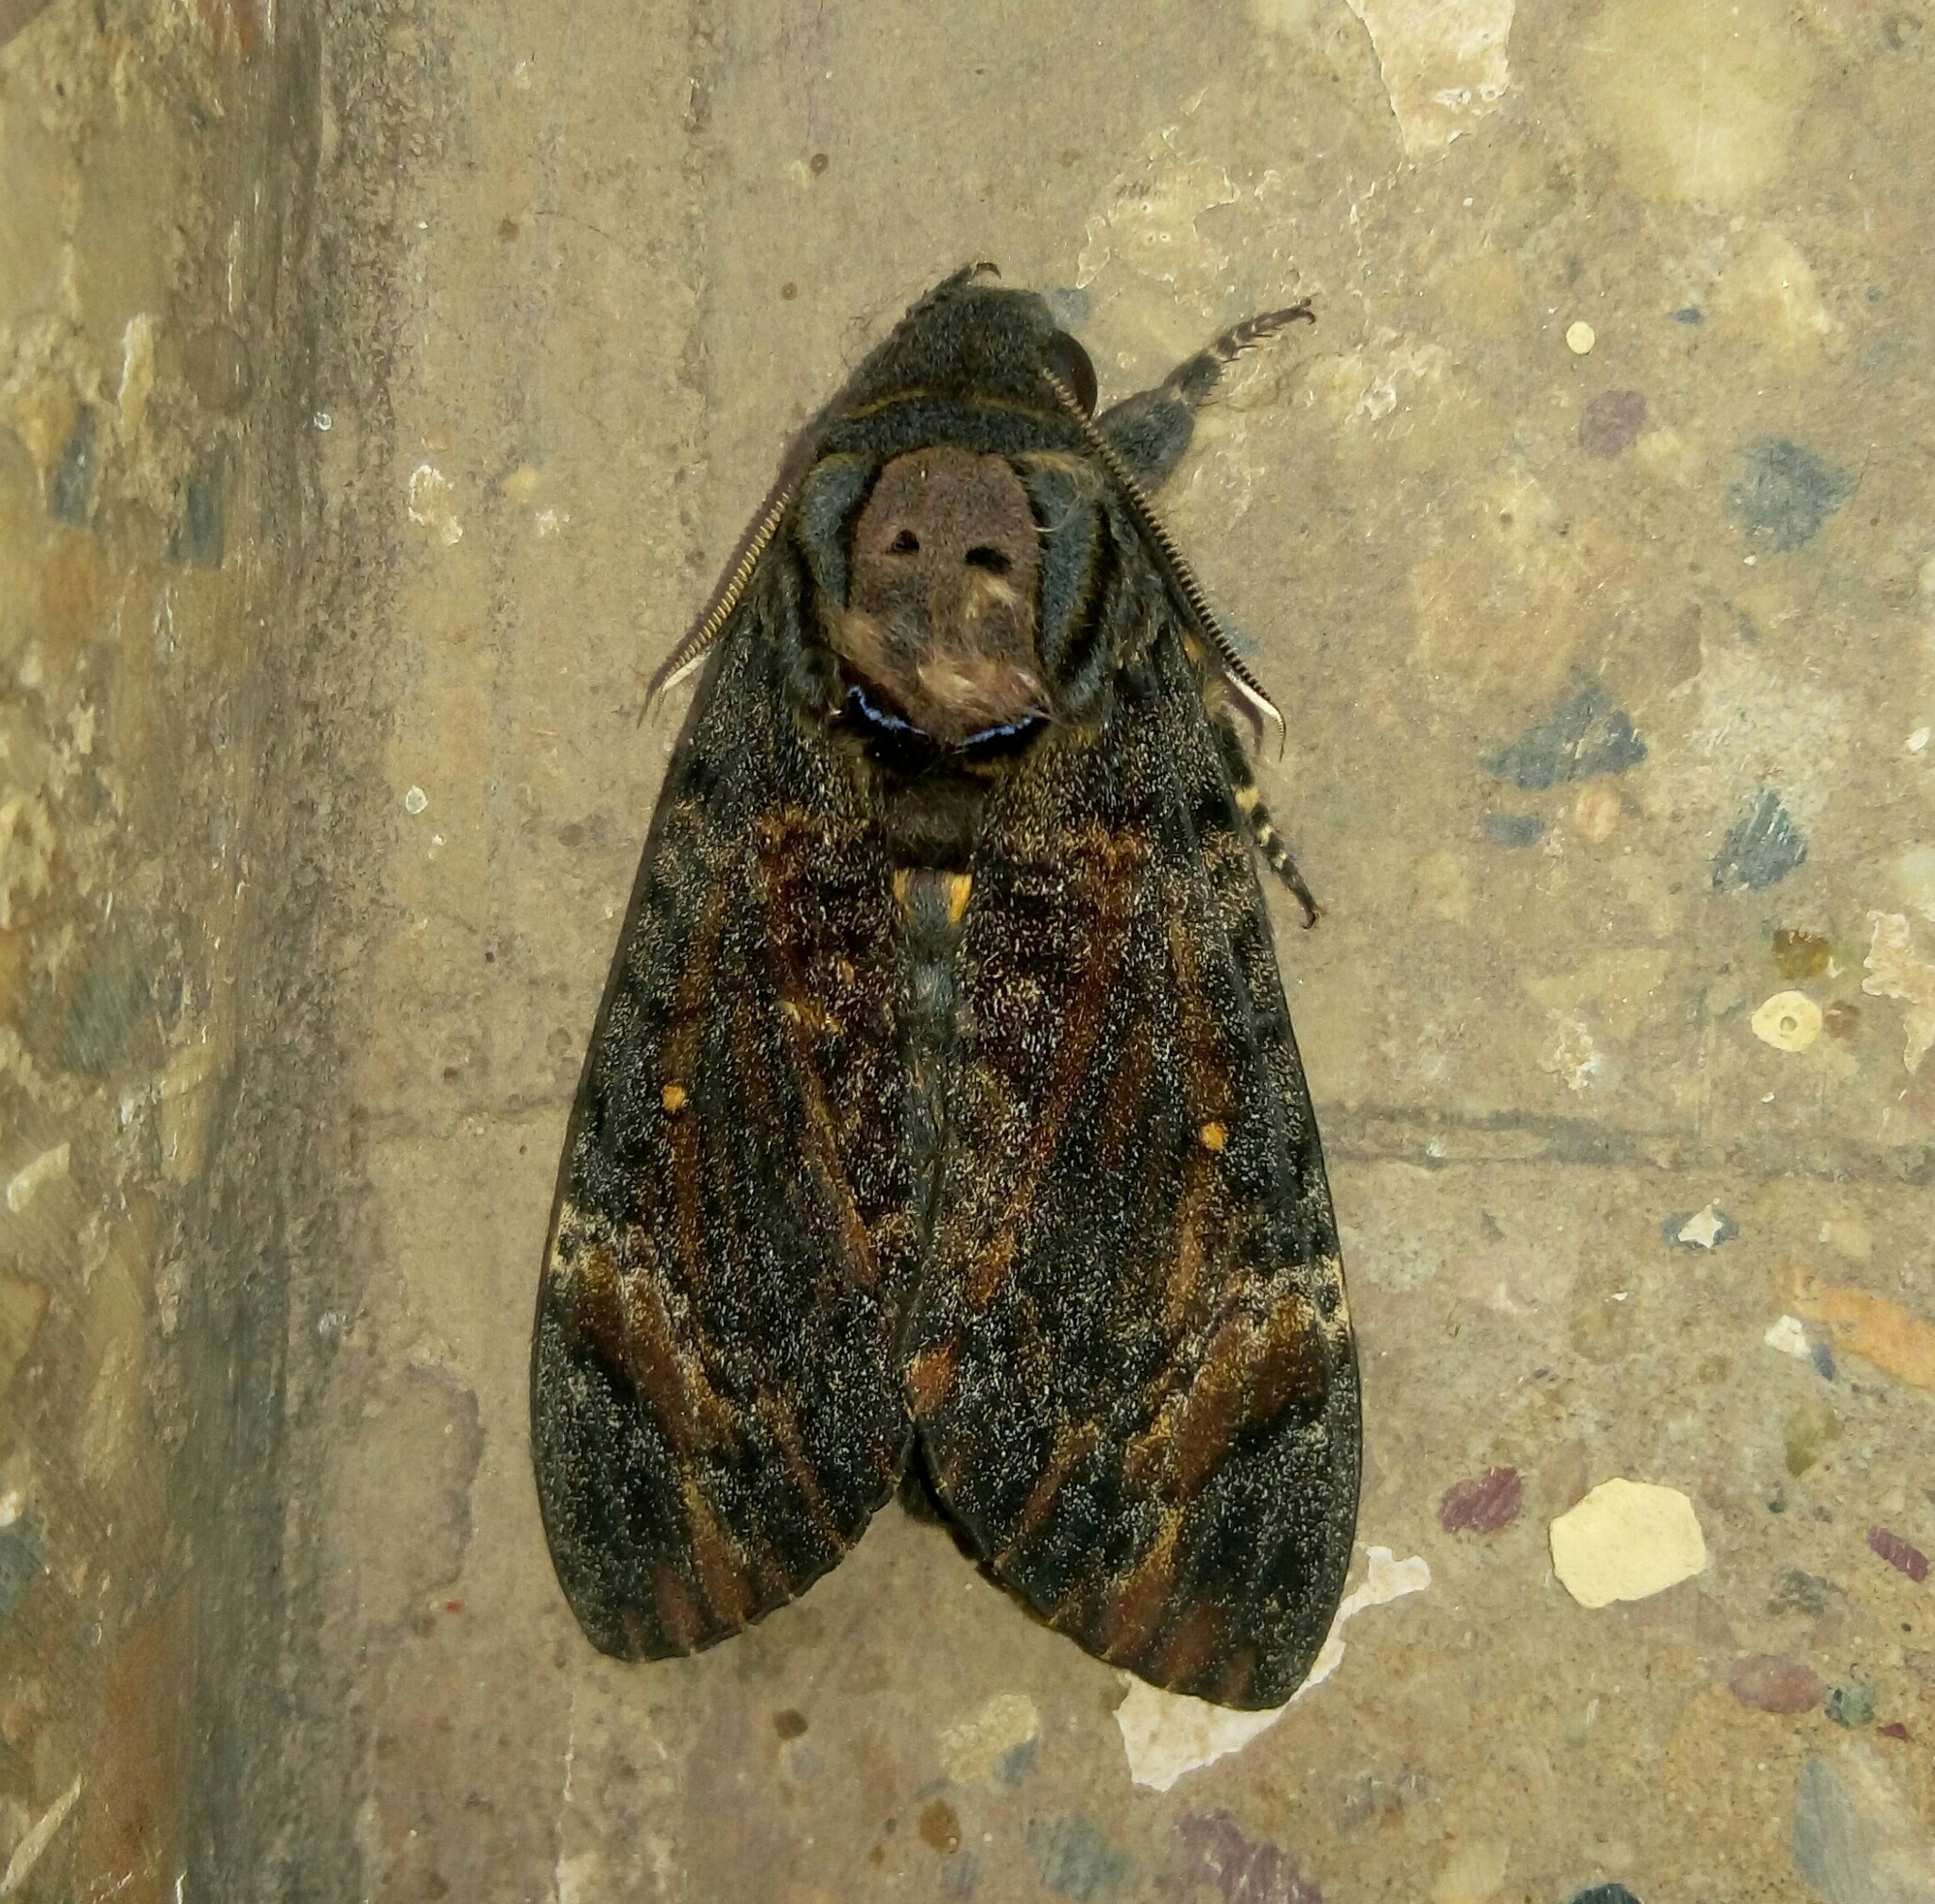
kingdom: Animalia
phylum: Arthropoda
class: Insecta
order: Lepidoptera
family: Sphingidae
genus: Acherontia
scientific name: Acherontia styx
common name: Death's-head hawk moth
